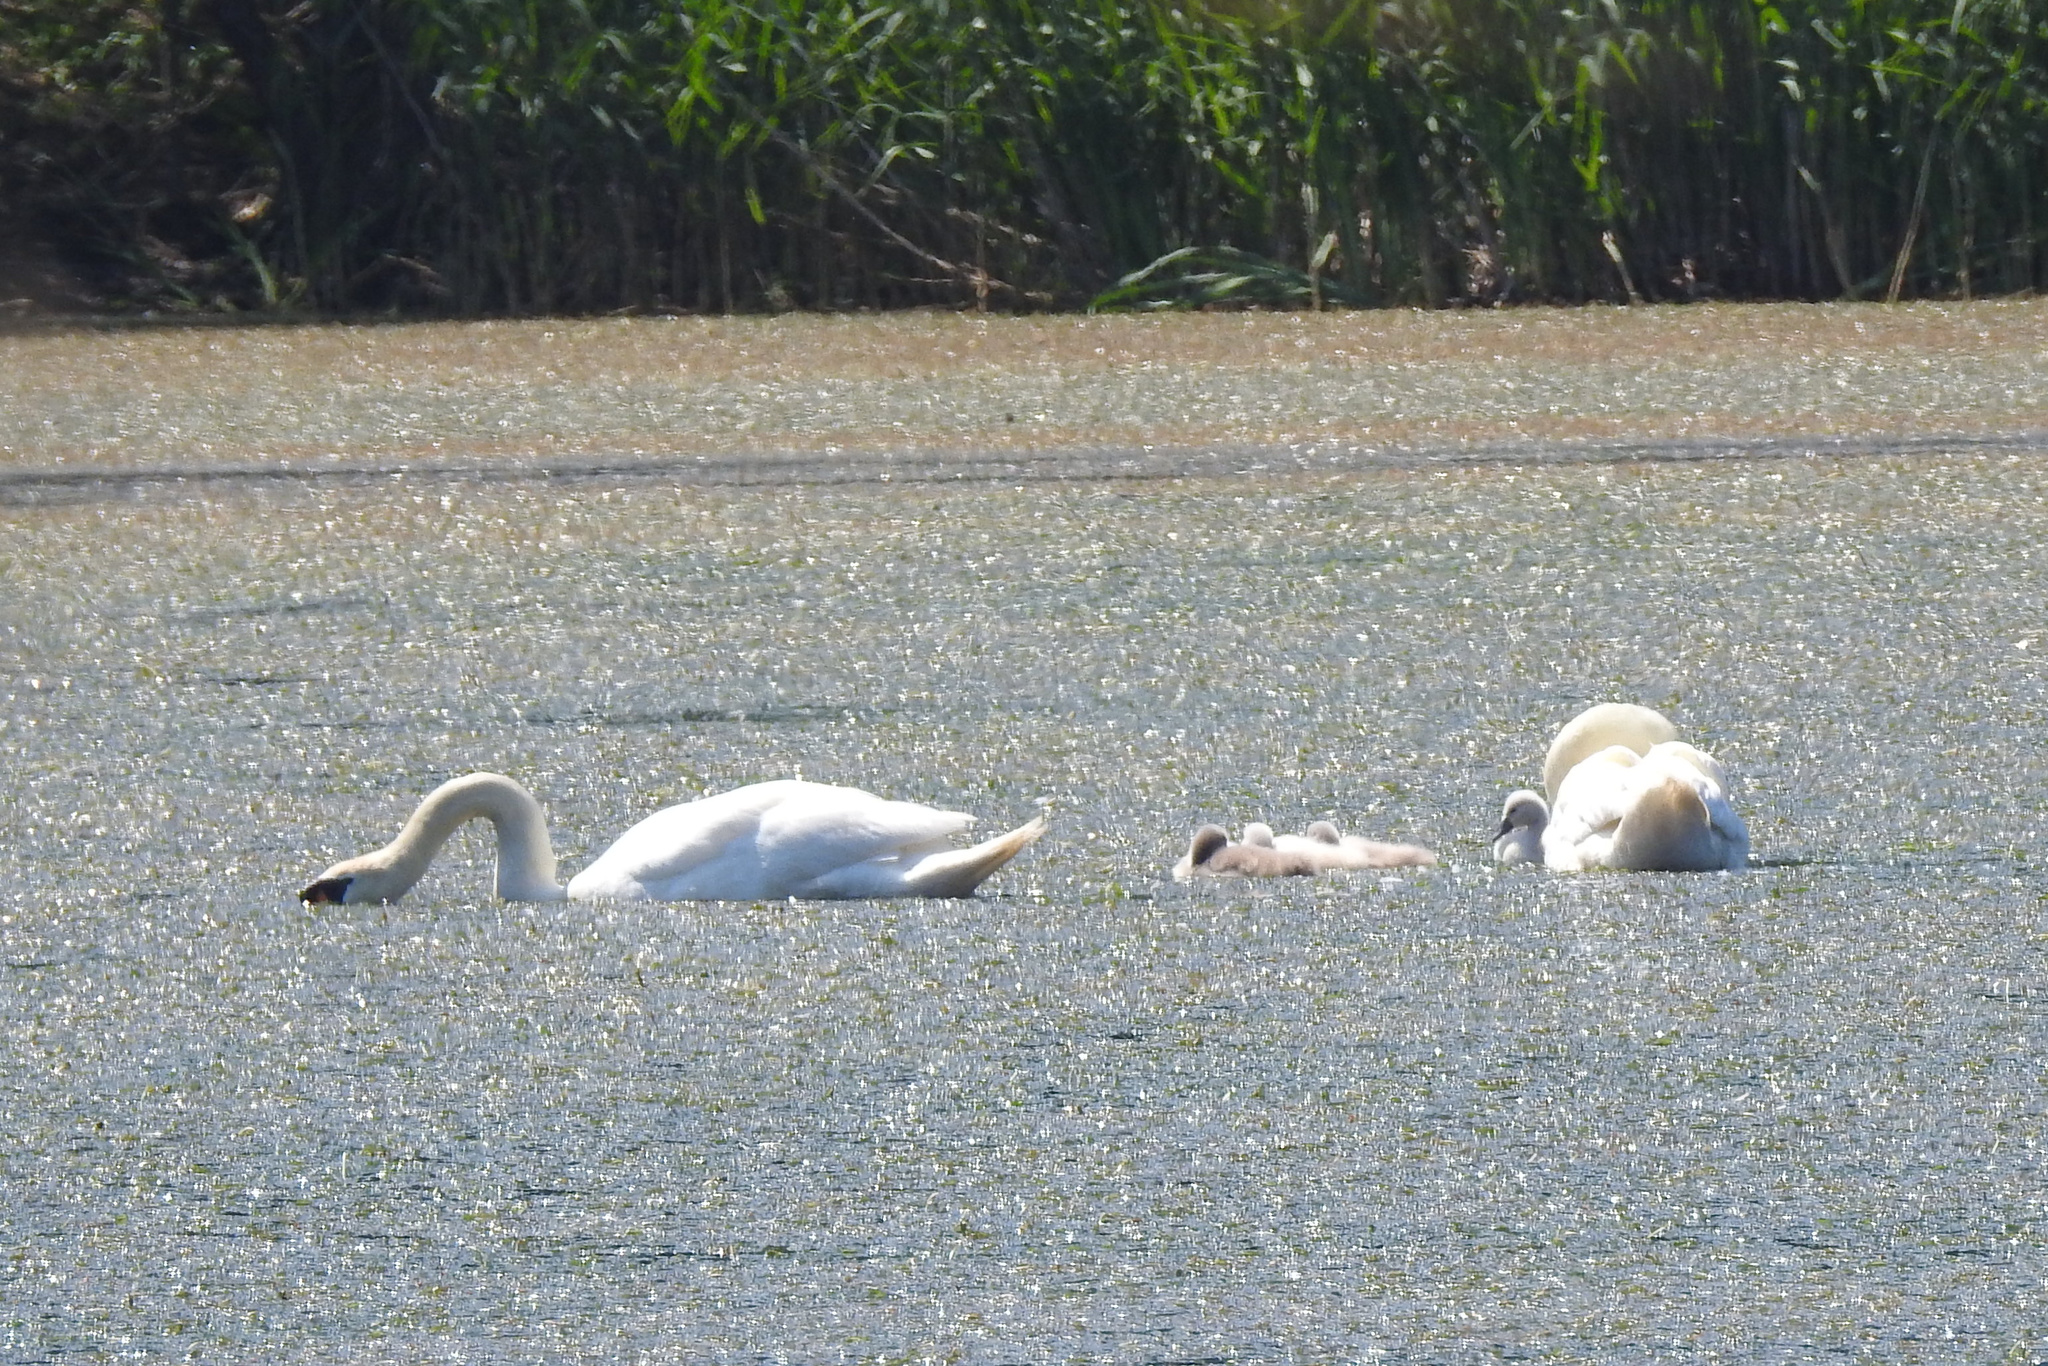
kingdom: Animalia
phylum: Chordata
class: Aves
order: Anseriformes
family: Anatidae
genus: Cygnus
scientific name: Cygnus olor
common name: Mute swan
